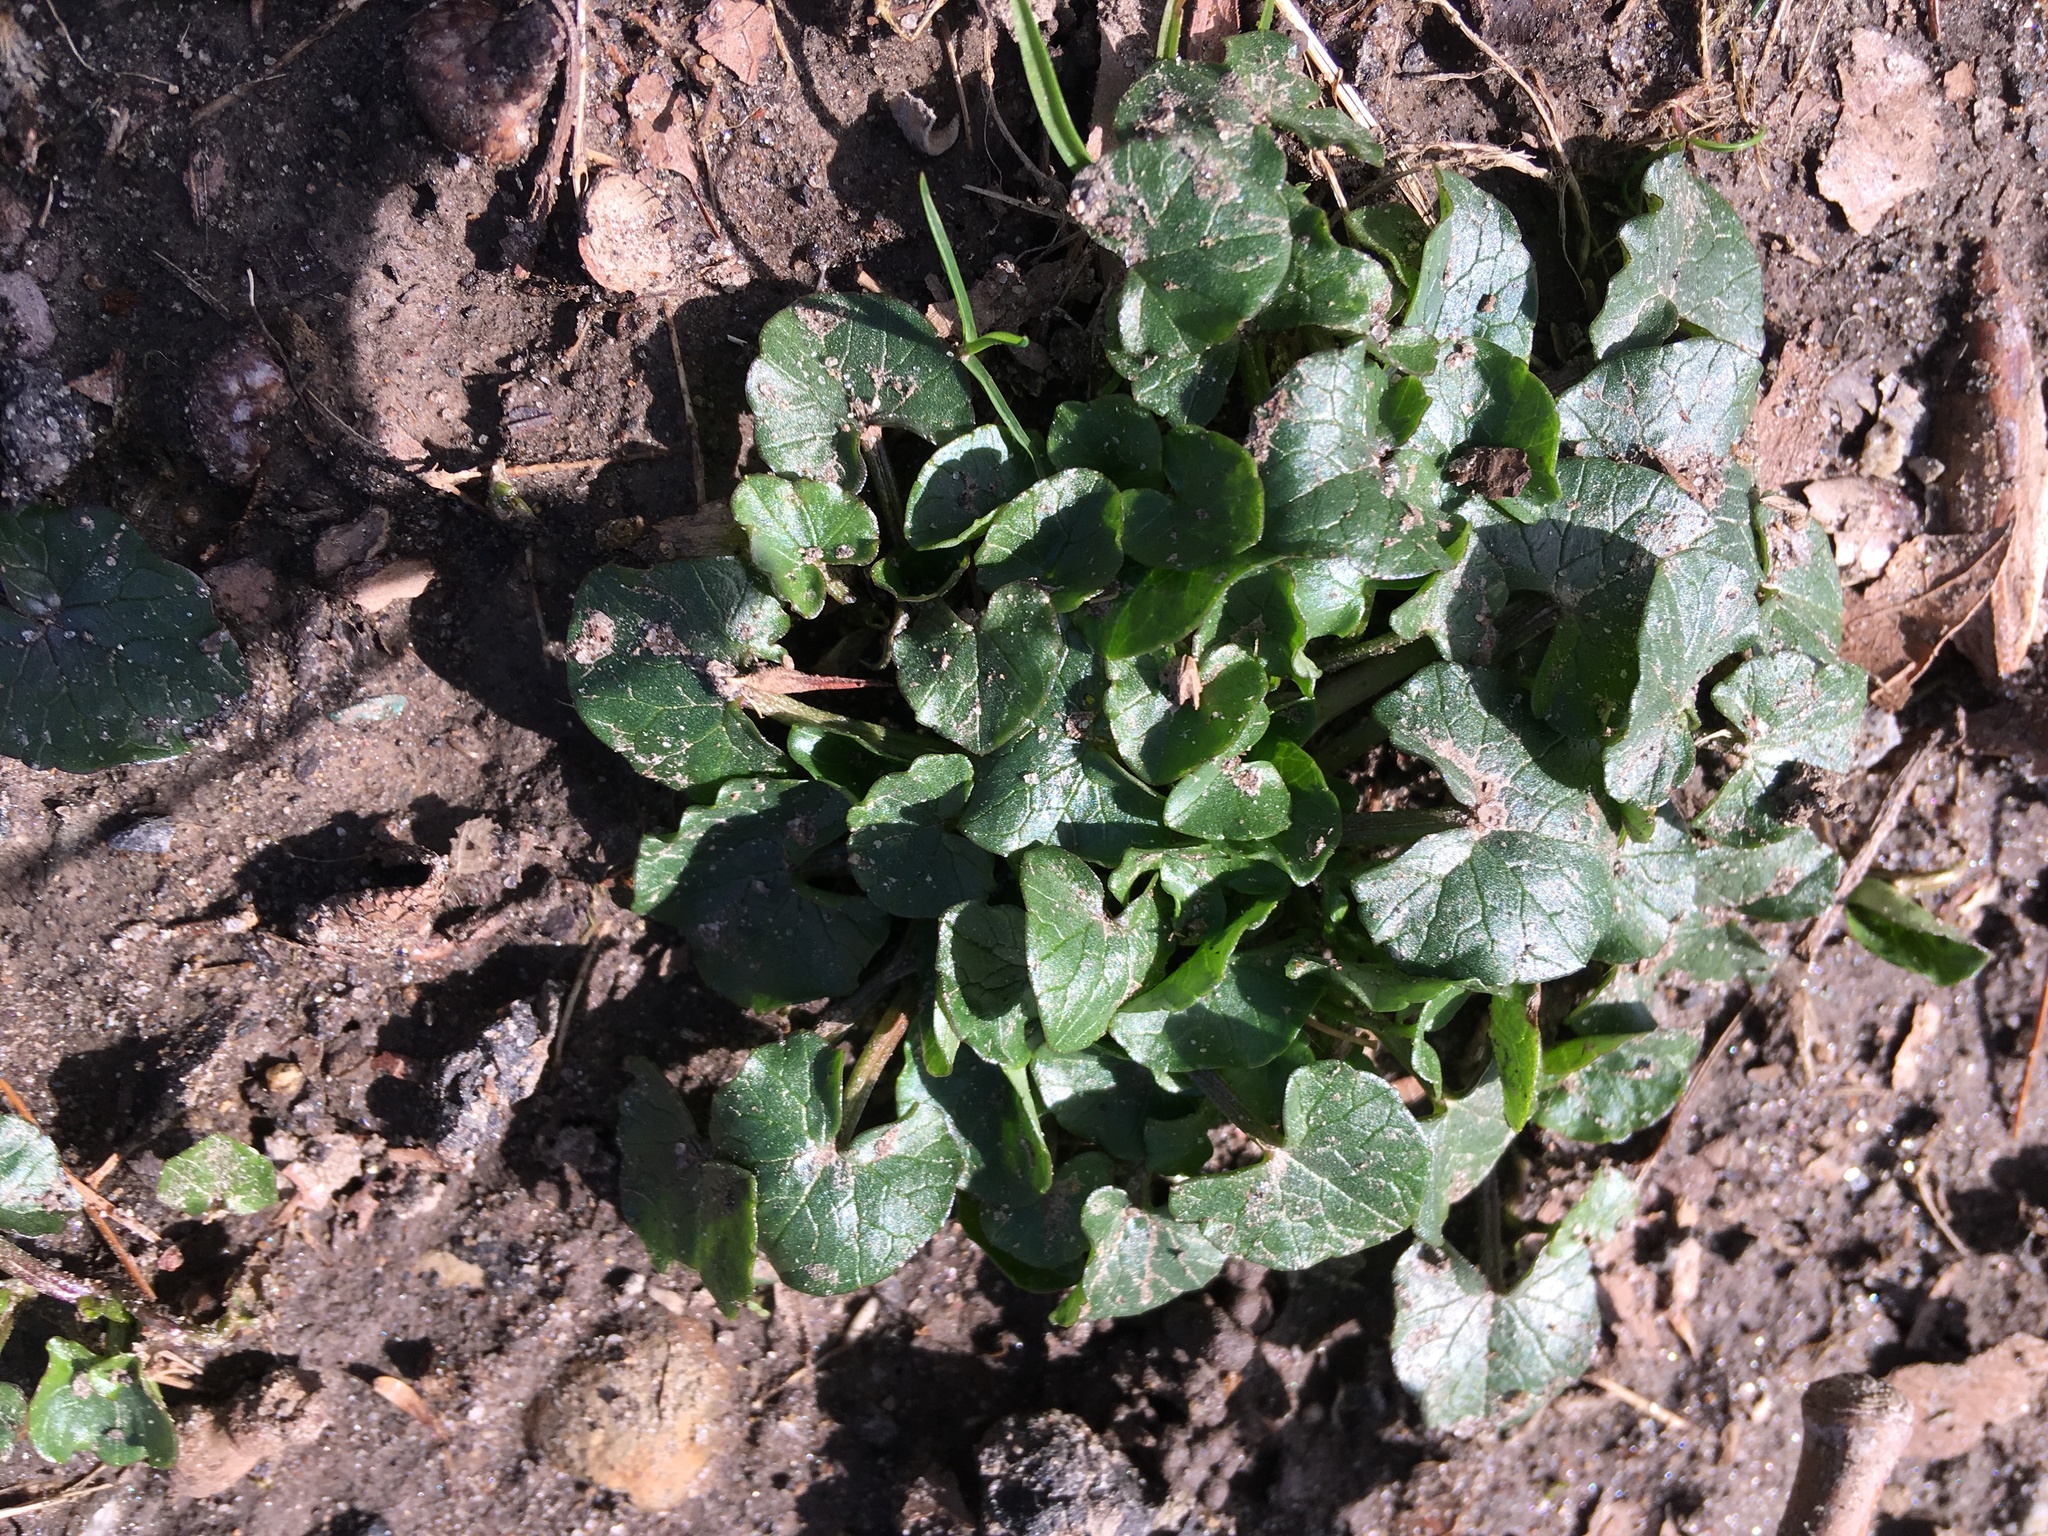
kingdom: Plantae
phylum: Tracheophyta
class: Magnoliopsida
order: Ranunculales
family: Ranunculaceae
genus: Ficaria
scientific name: Ficaria verna
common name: Lesser celandine
